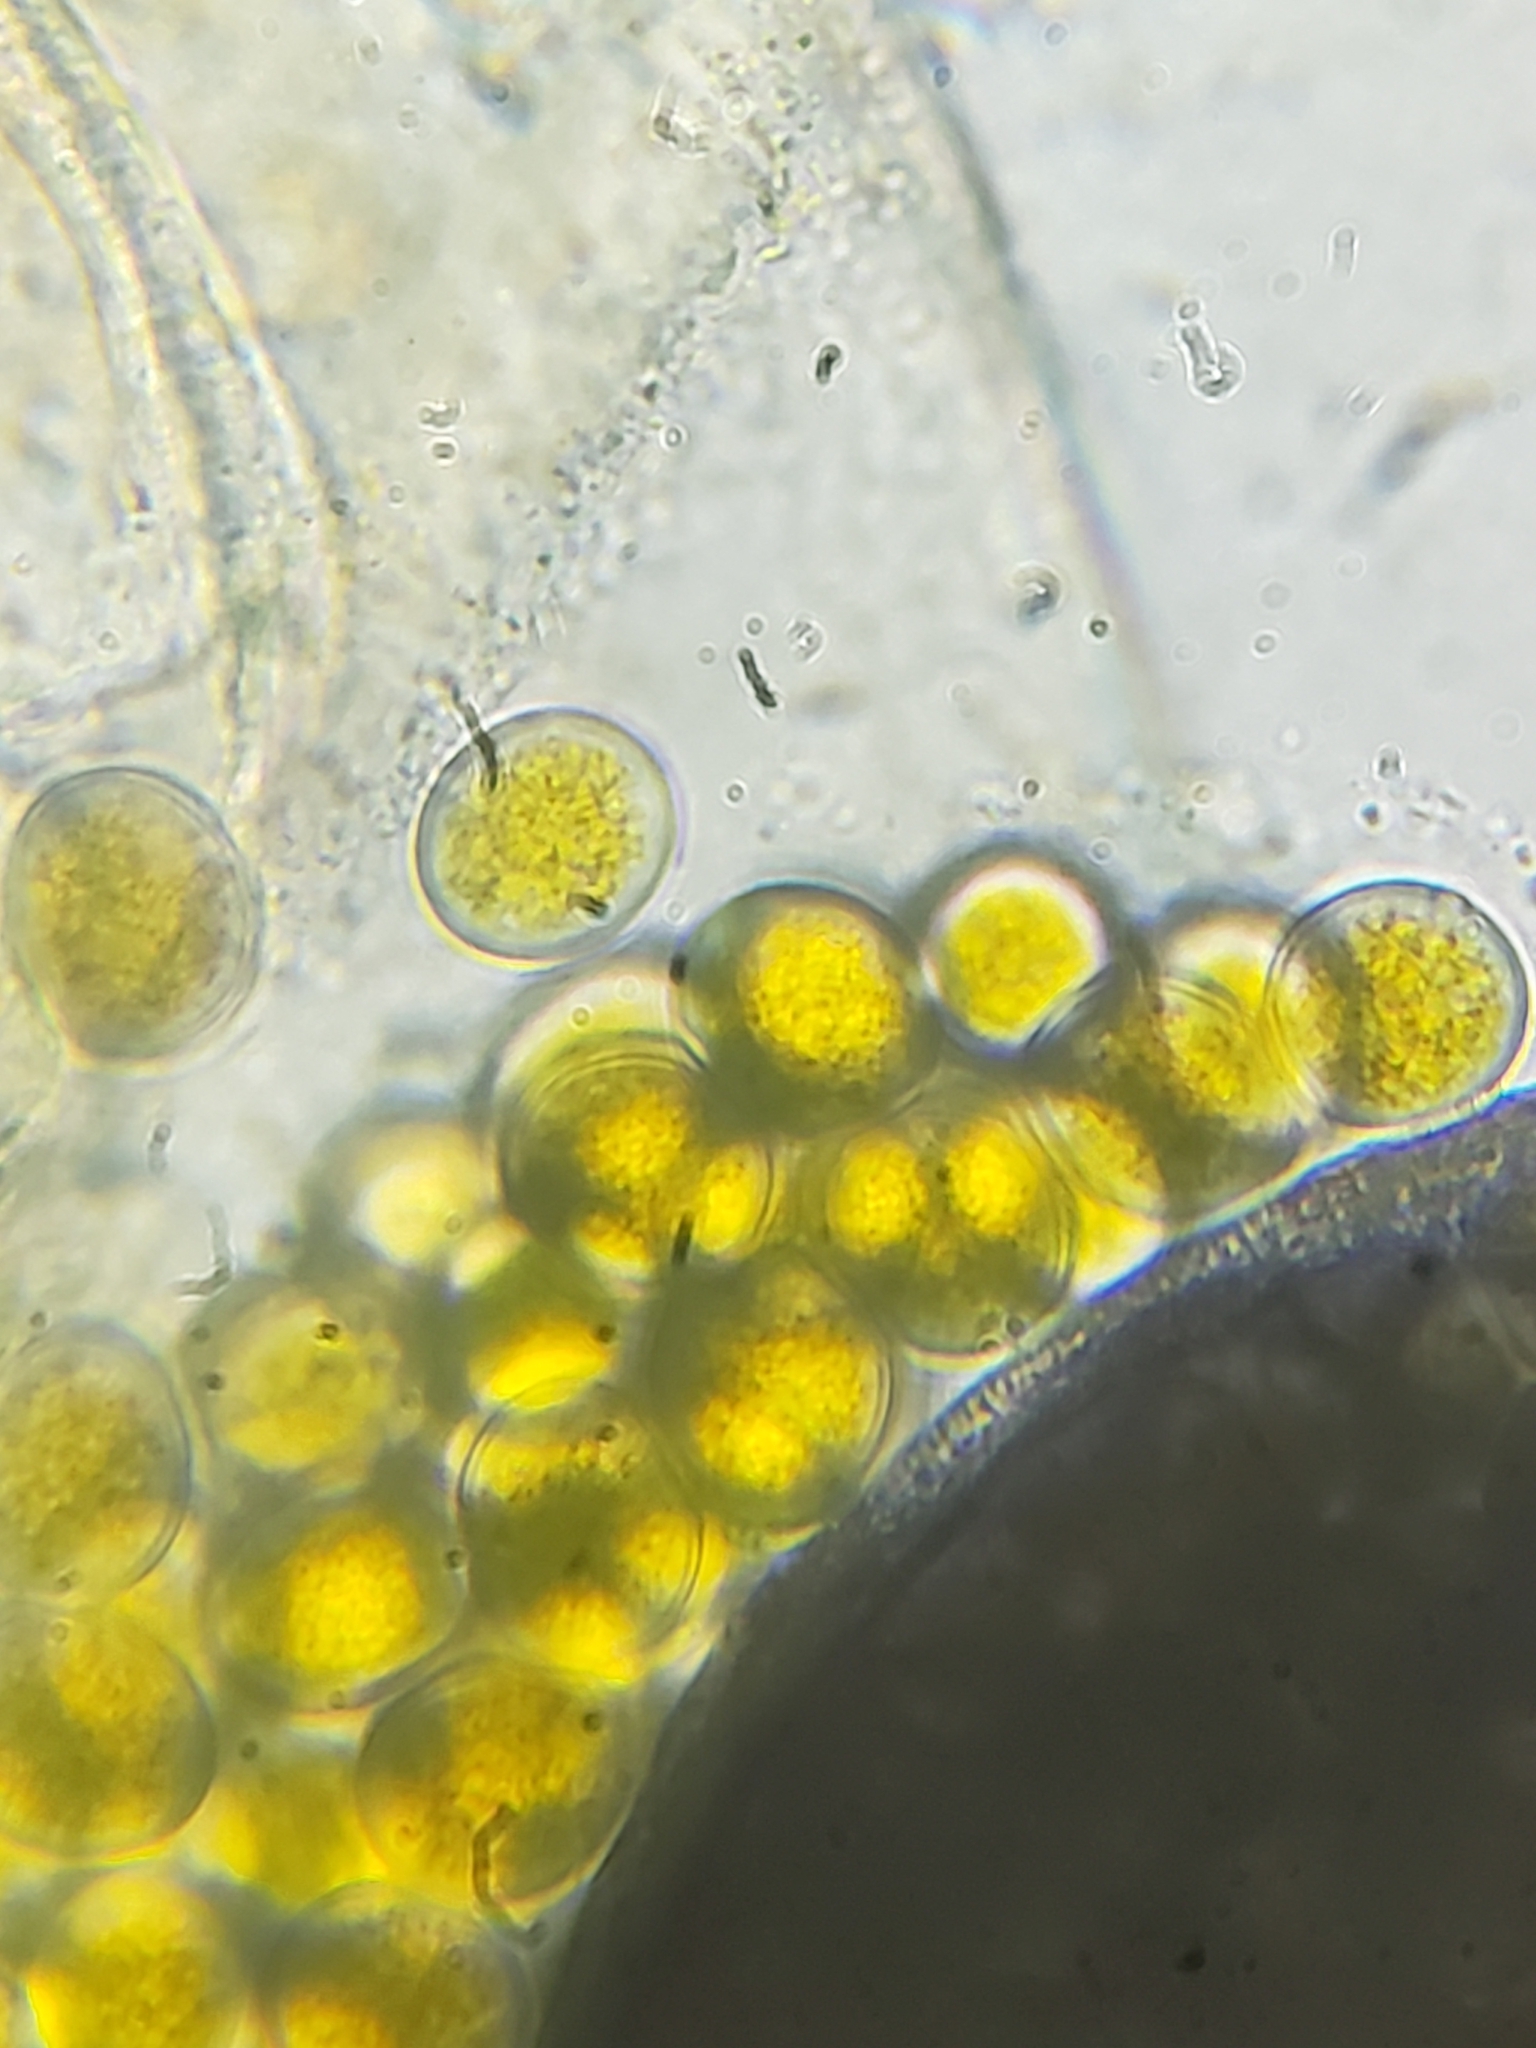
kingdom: Fungi
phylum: Mucoromycota
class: Mucoromycetes
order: Mucorales
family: Pilobolaceae
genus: Pilobolus
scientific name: Pilobolus
